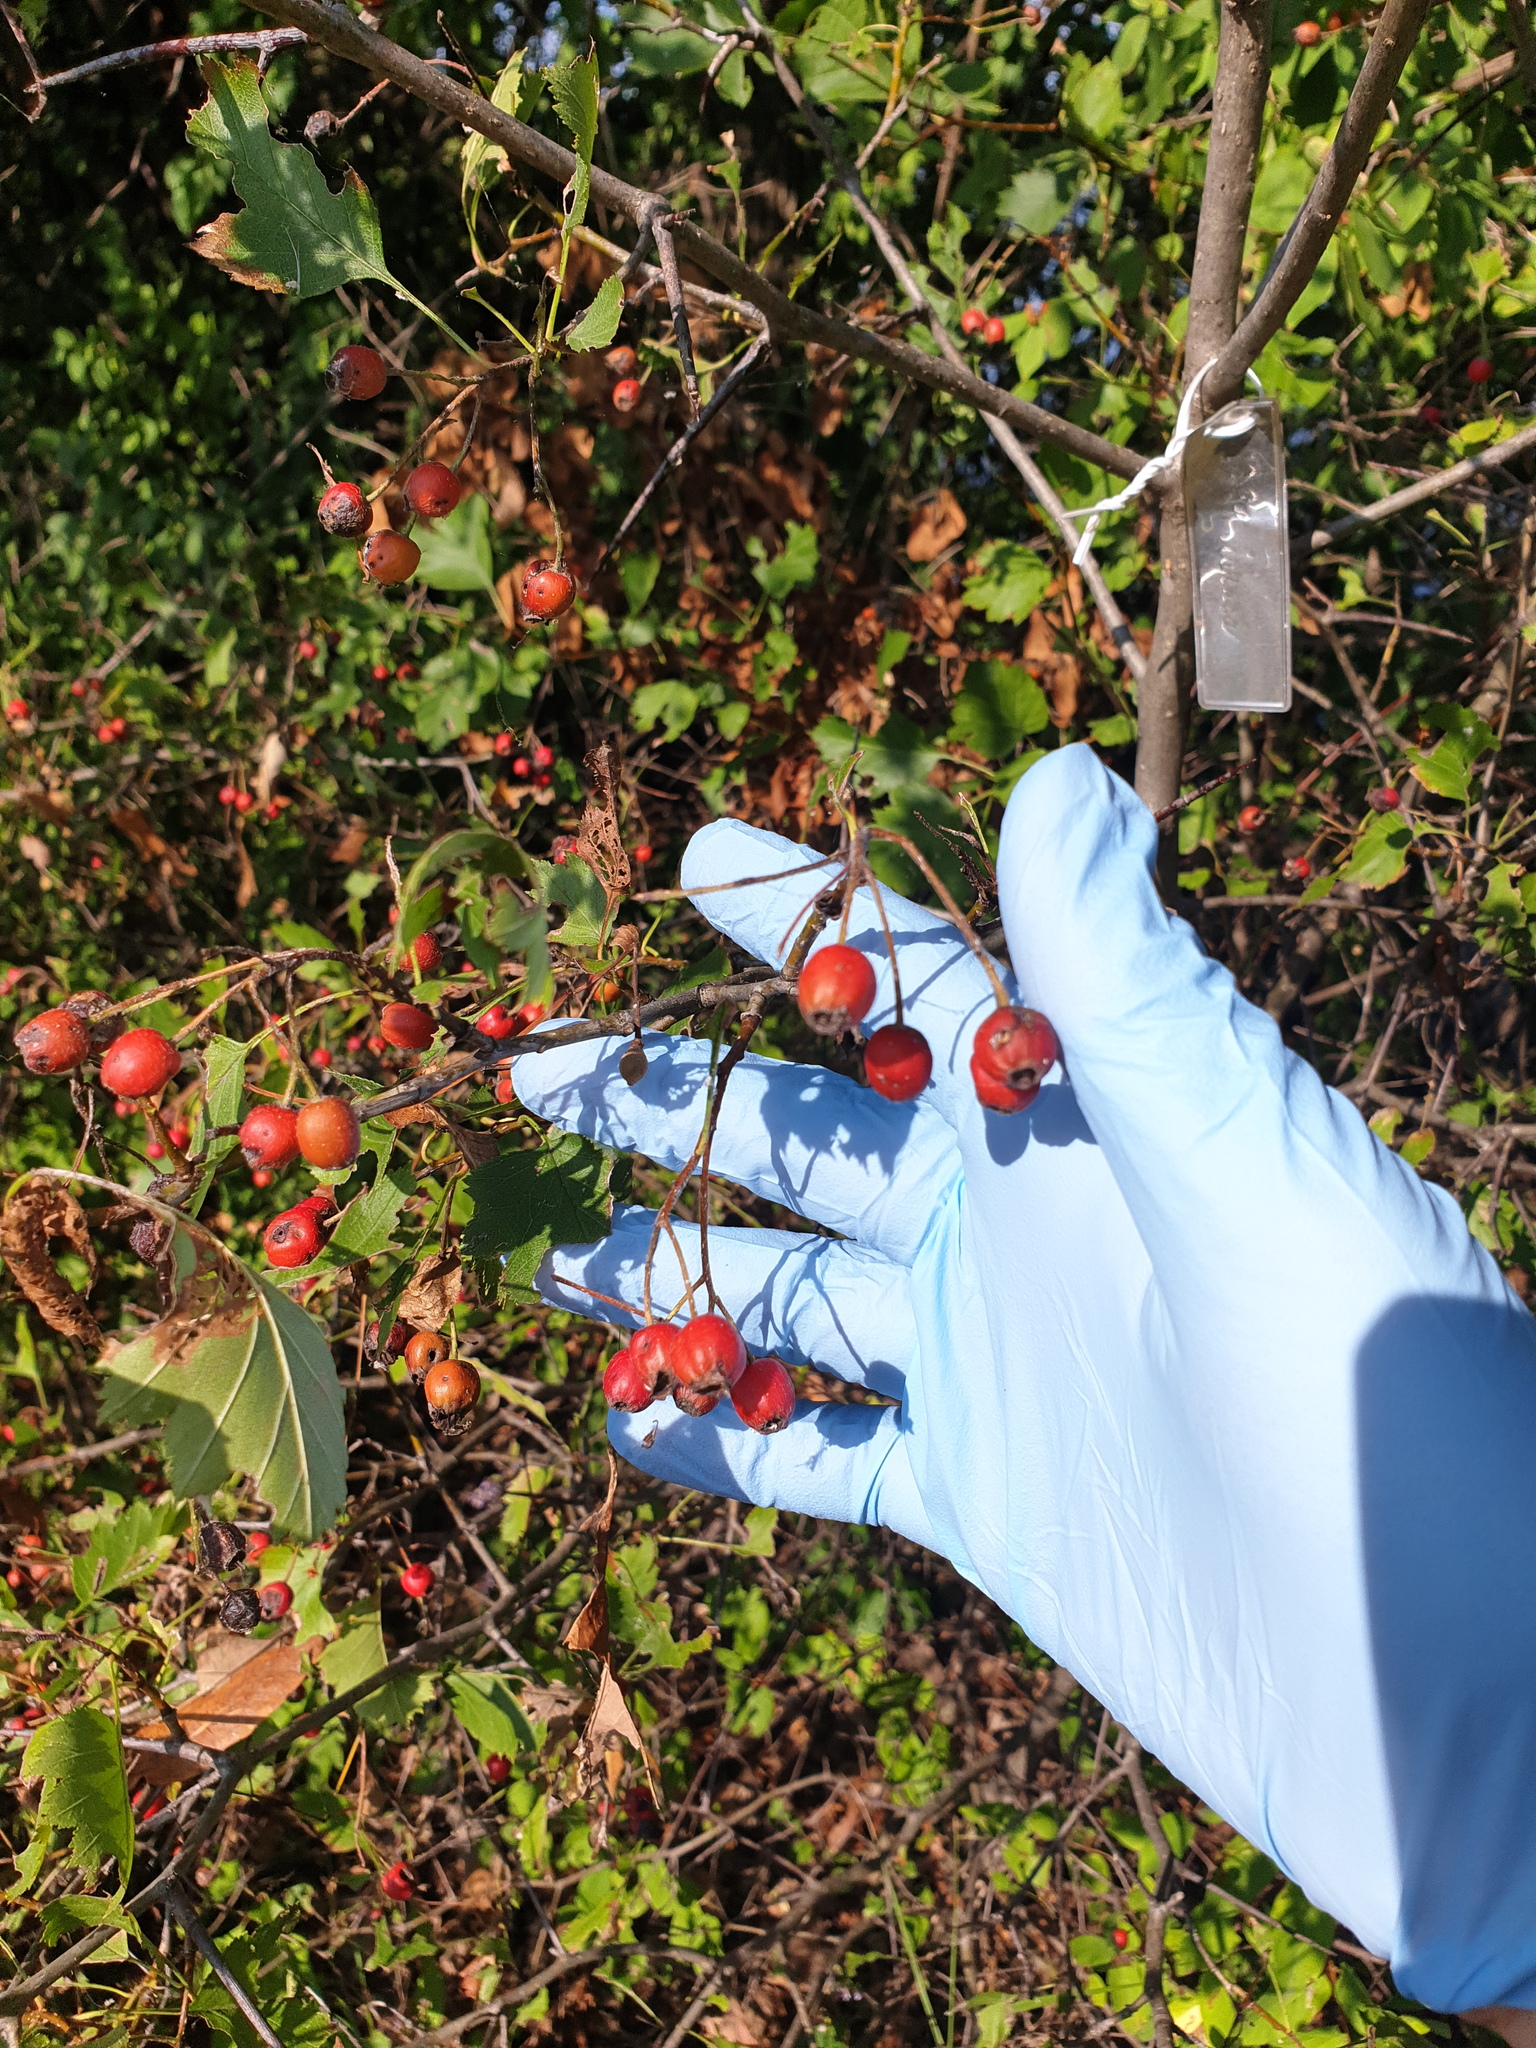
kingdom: Plantae
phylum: Tracheophyta
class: Magnoliopsida
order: Rosales
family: Rosaceae
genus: Crataegus
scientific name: Crataegus irrasa
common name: Unshorn hawthorn
